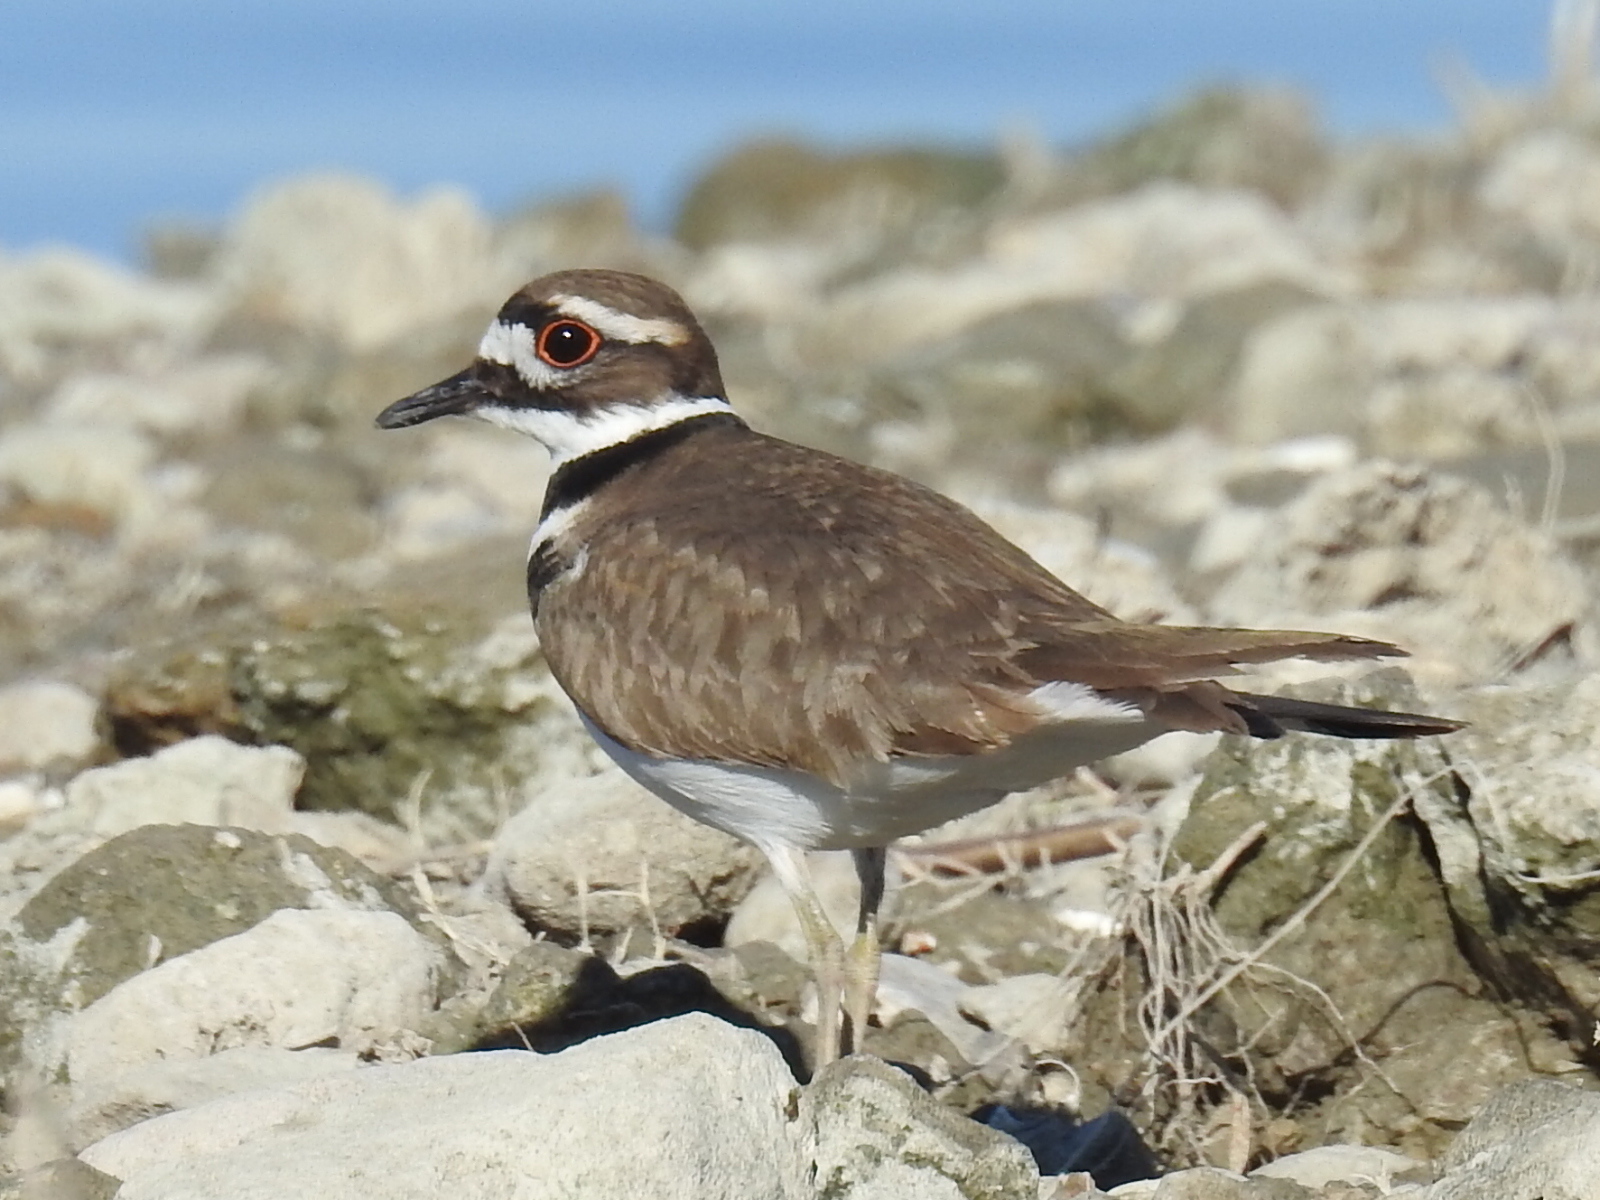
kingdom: Animalia
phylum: Chordata
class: Aves
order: Charadriiformes
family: Charadriidae
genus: Charadrius
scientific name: Charadrius vociferus
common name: Killdeer
